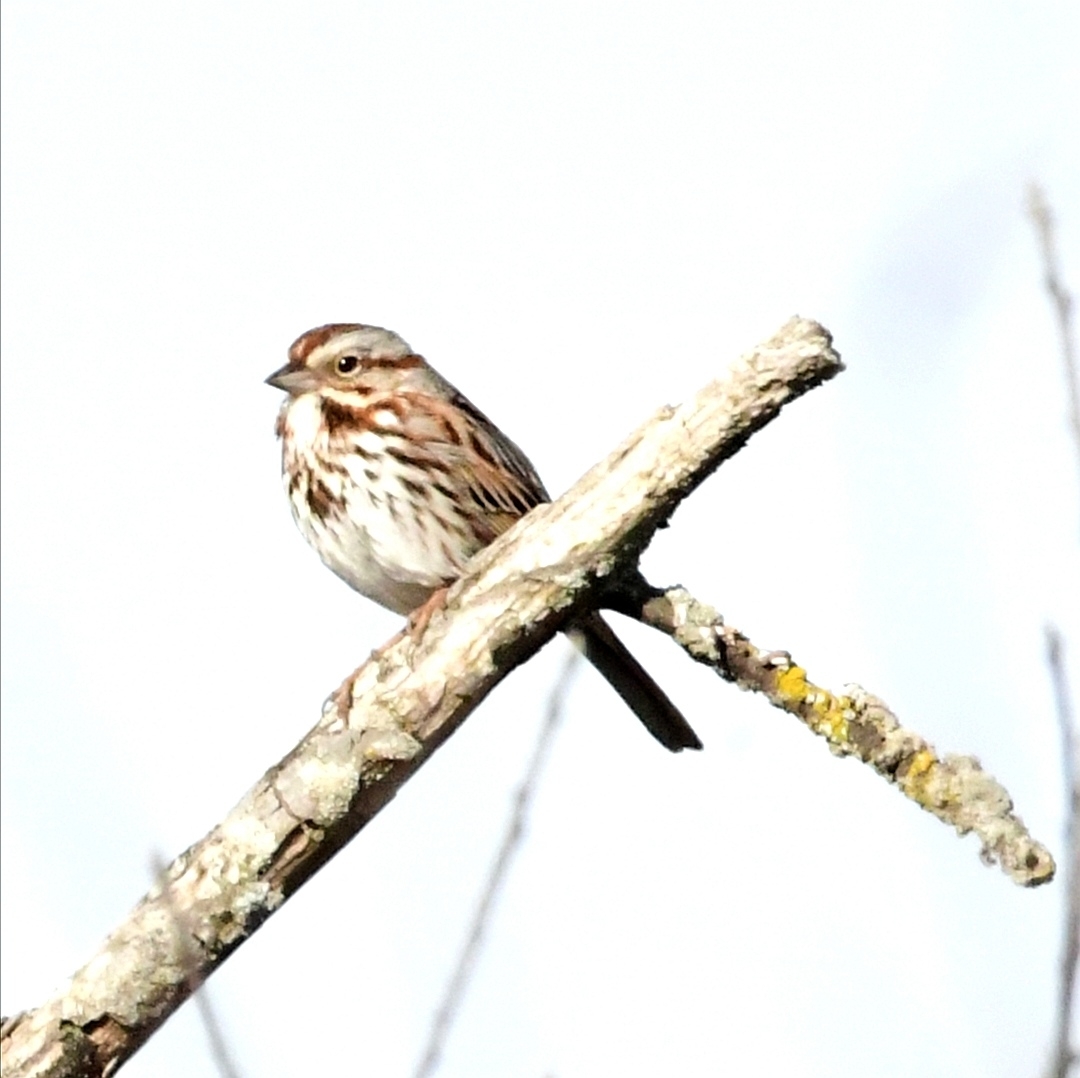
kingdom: Animalia
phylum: Chordata
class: Aves
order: Passeriformes
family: Passerellidae
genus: Melospiza
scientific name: Melospiza melodia
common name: Song sparrow
